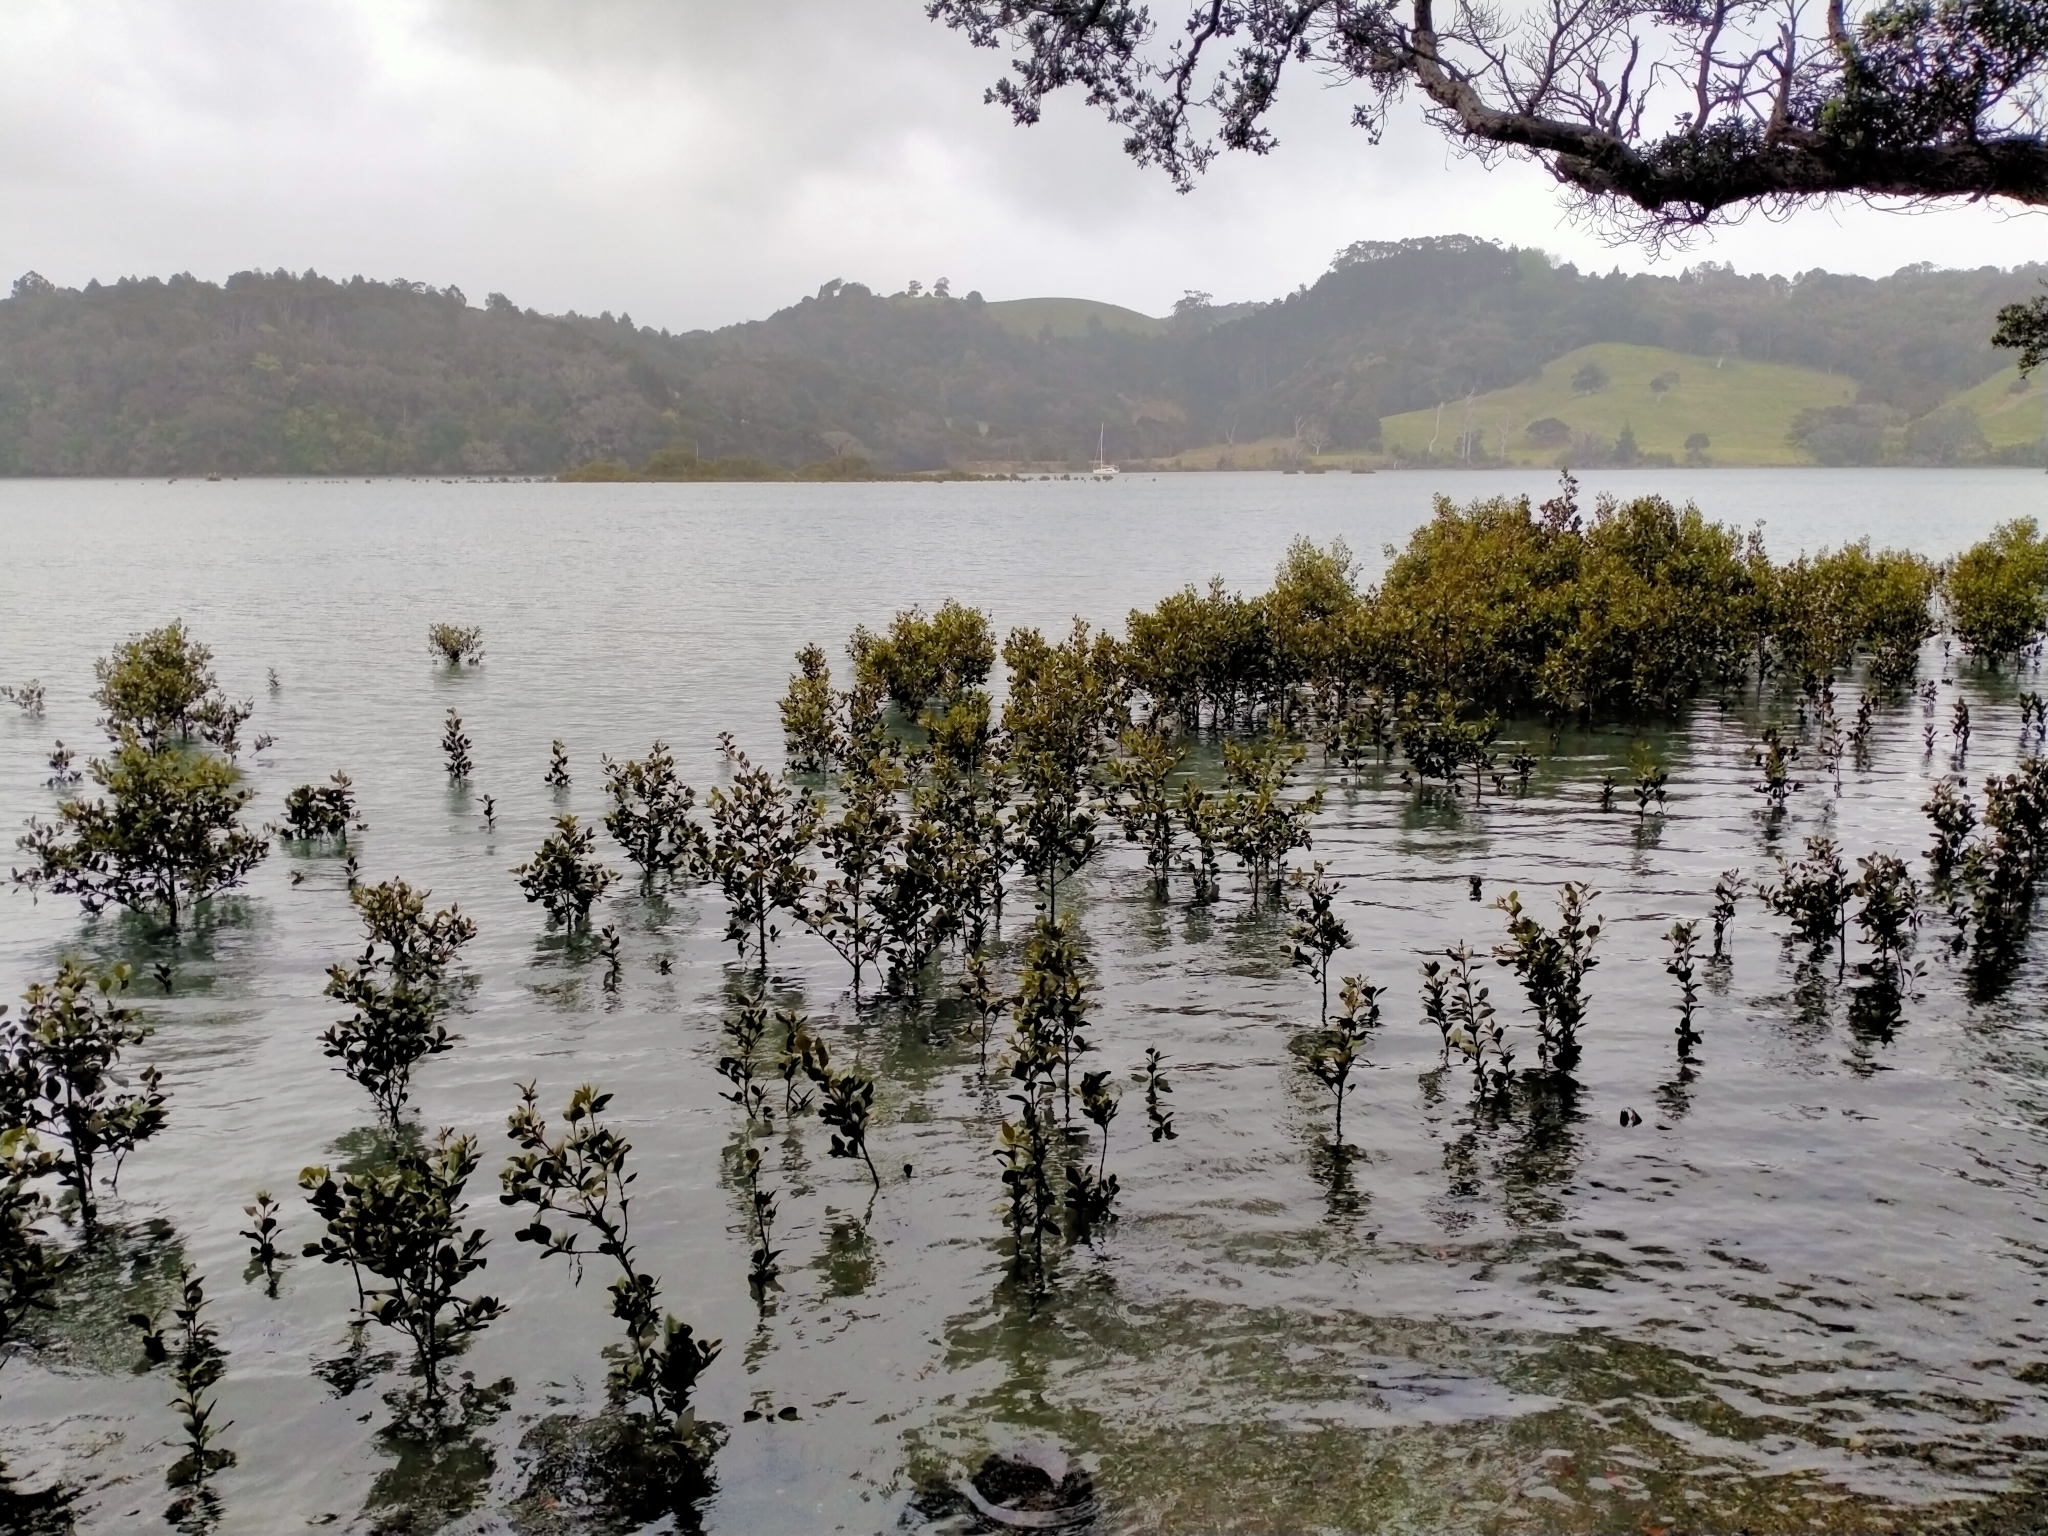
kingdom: Plantae
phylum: Tracheophyta
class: Magnoliopsida
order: Lamiales
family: Acanthaceae
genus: Avicennia
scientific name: Avicennia marina
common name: Gray mangrove
